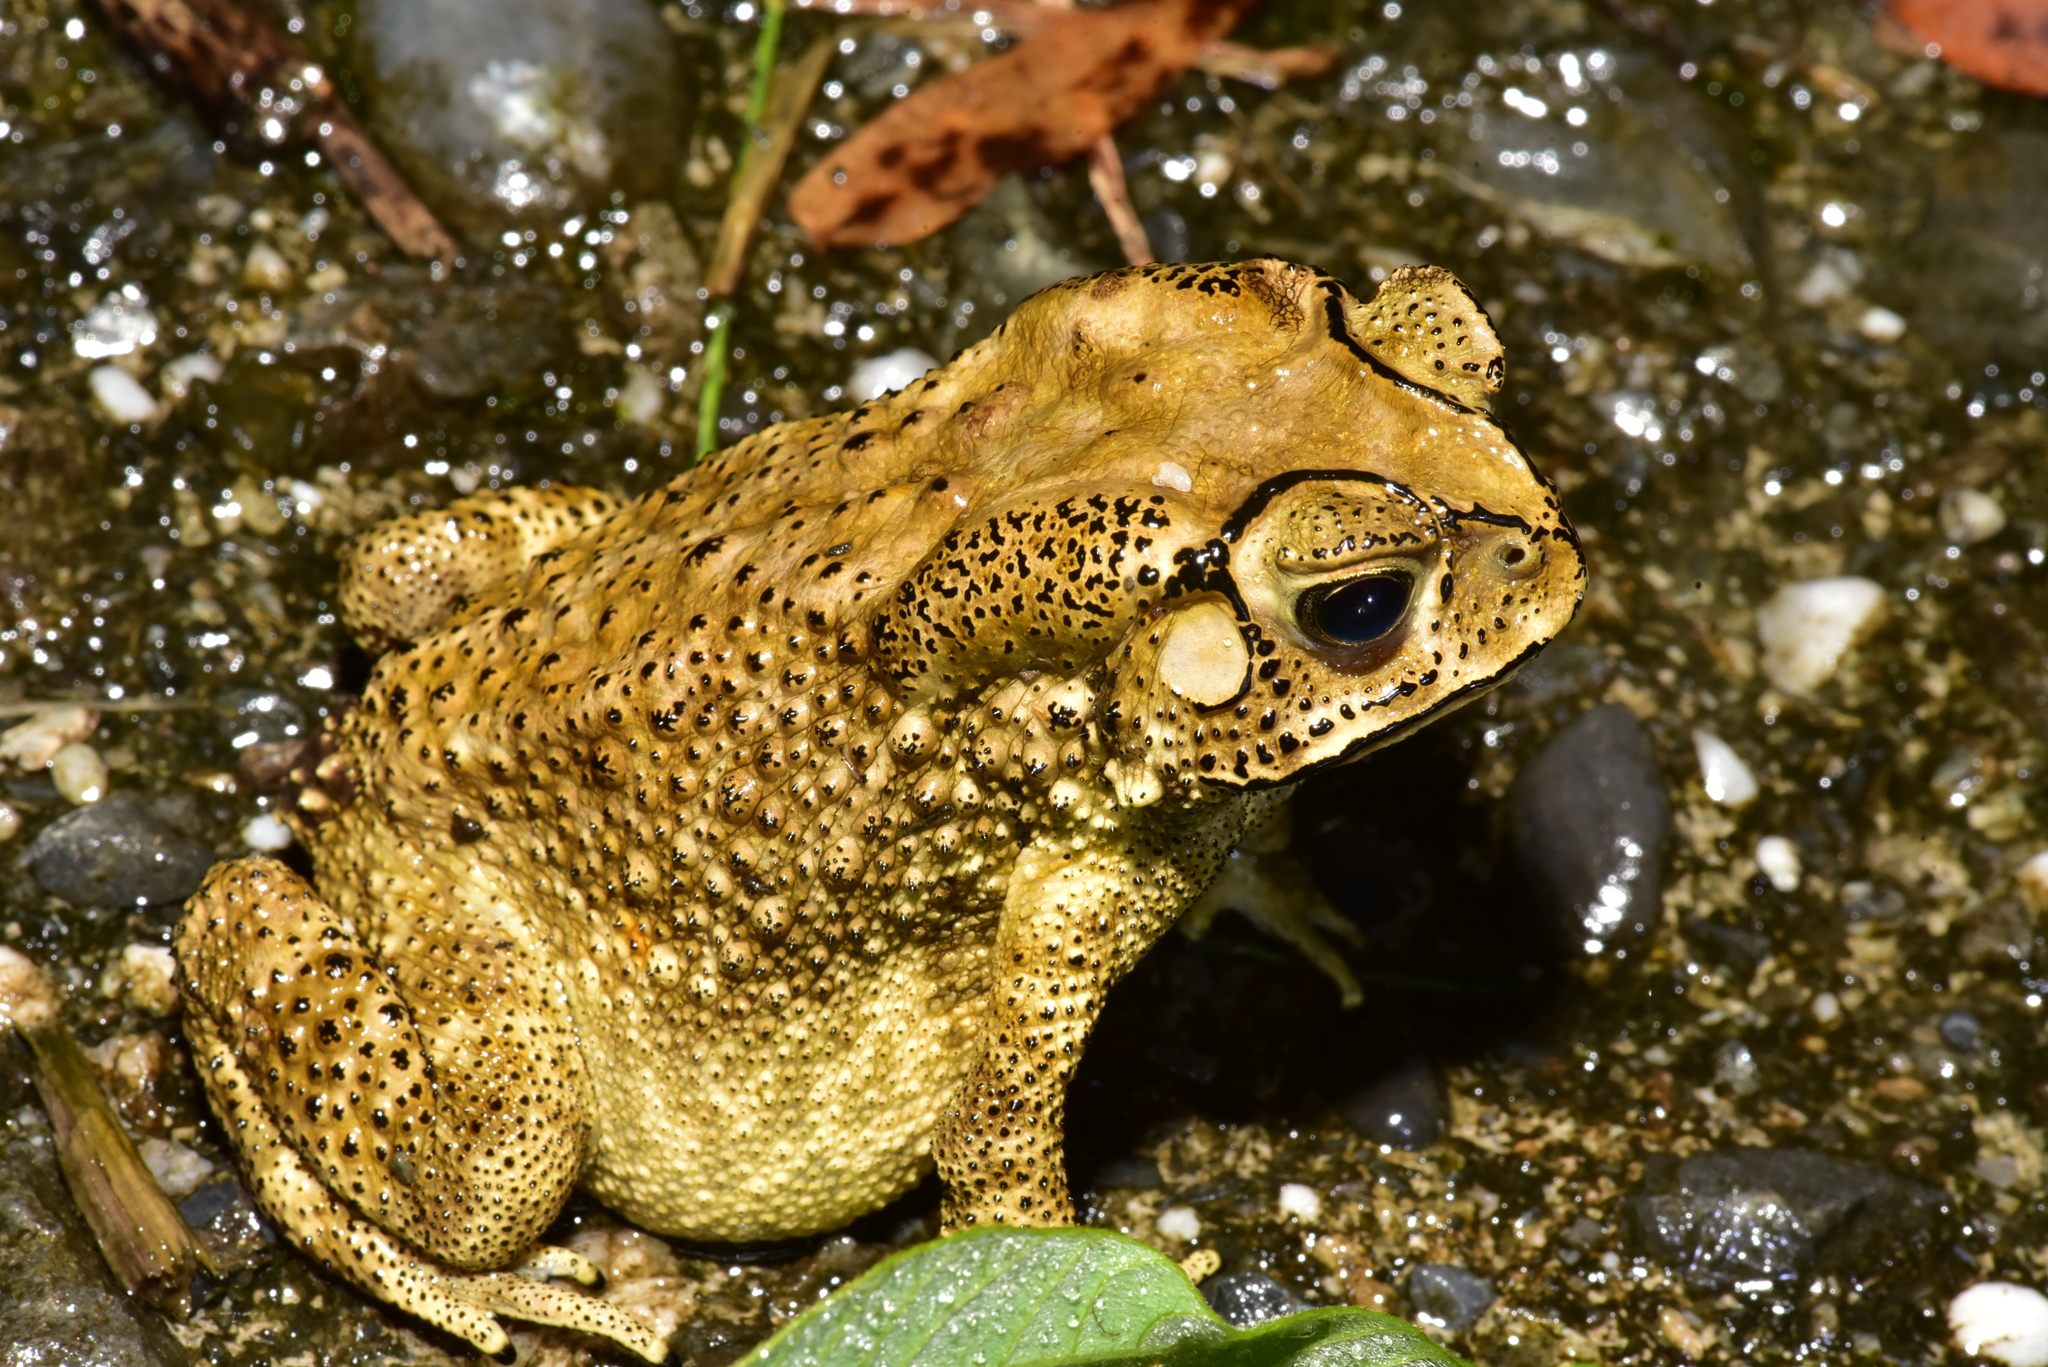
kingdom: Animalia
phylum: Chordata
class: Amphibia
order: Anura
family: Bufonidae
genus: Duttaphrynus
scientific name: Duttaphrynus melanostictus
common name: Common sunda toad
